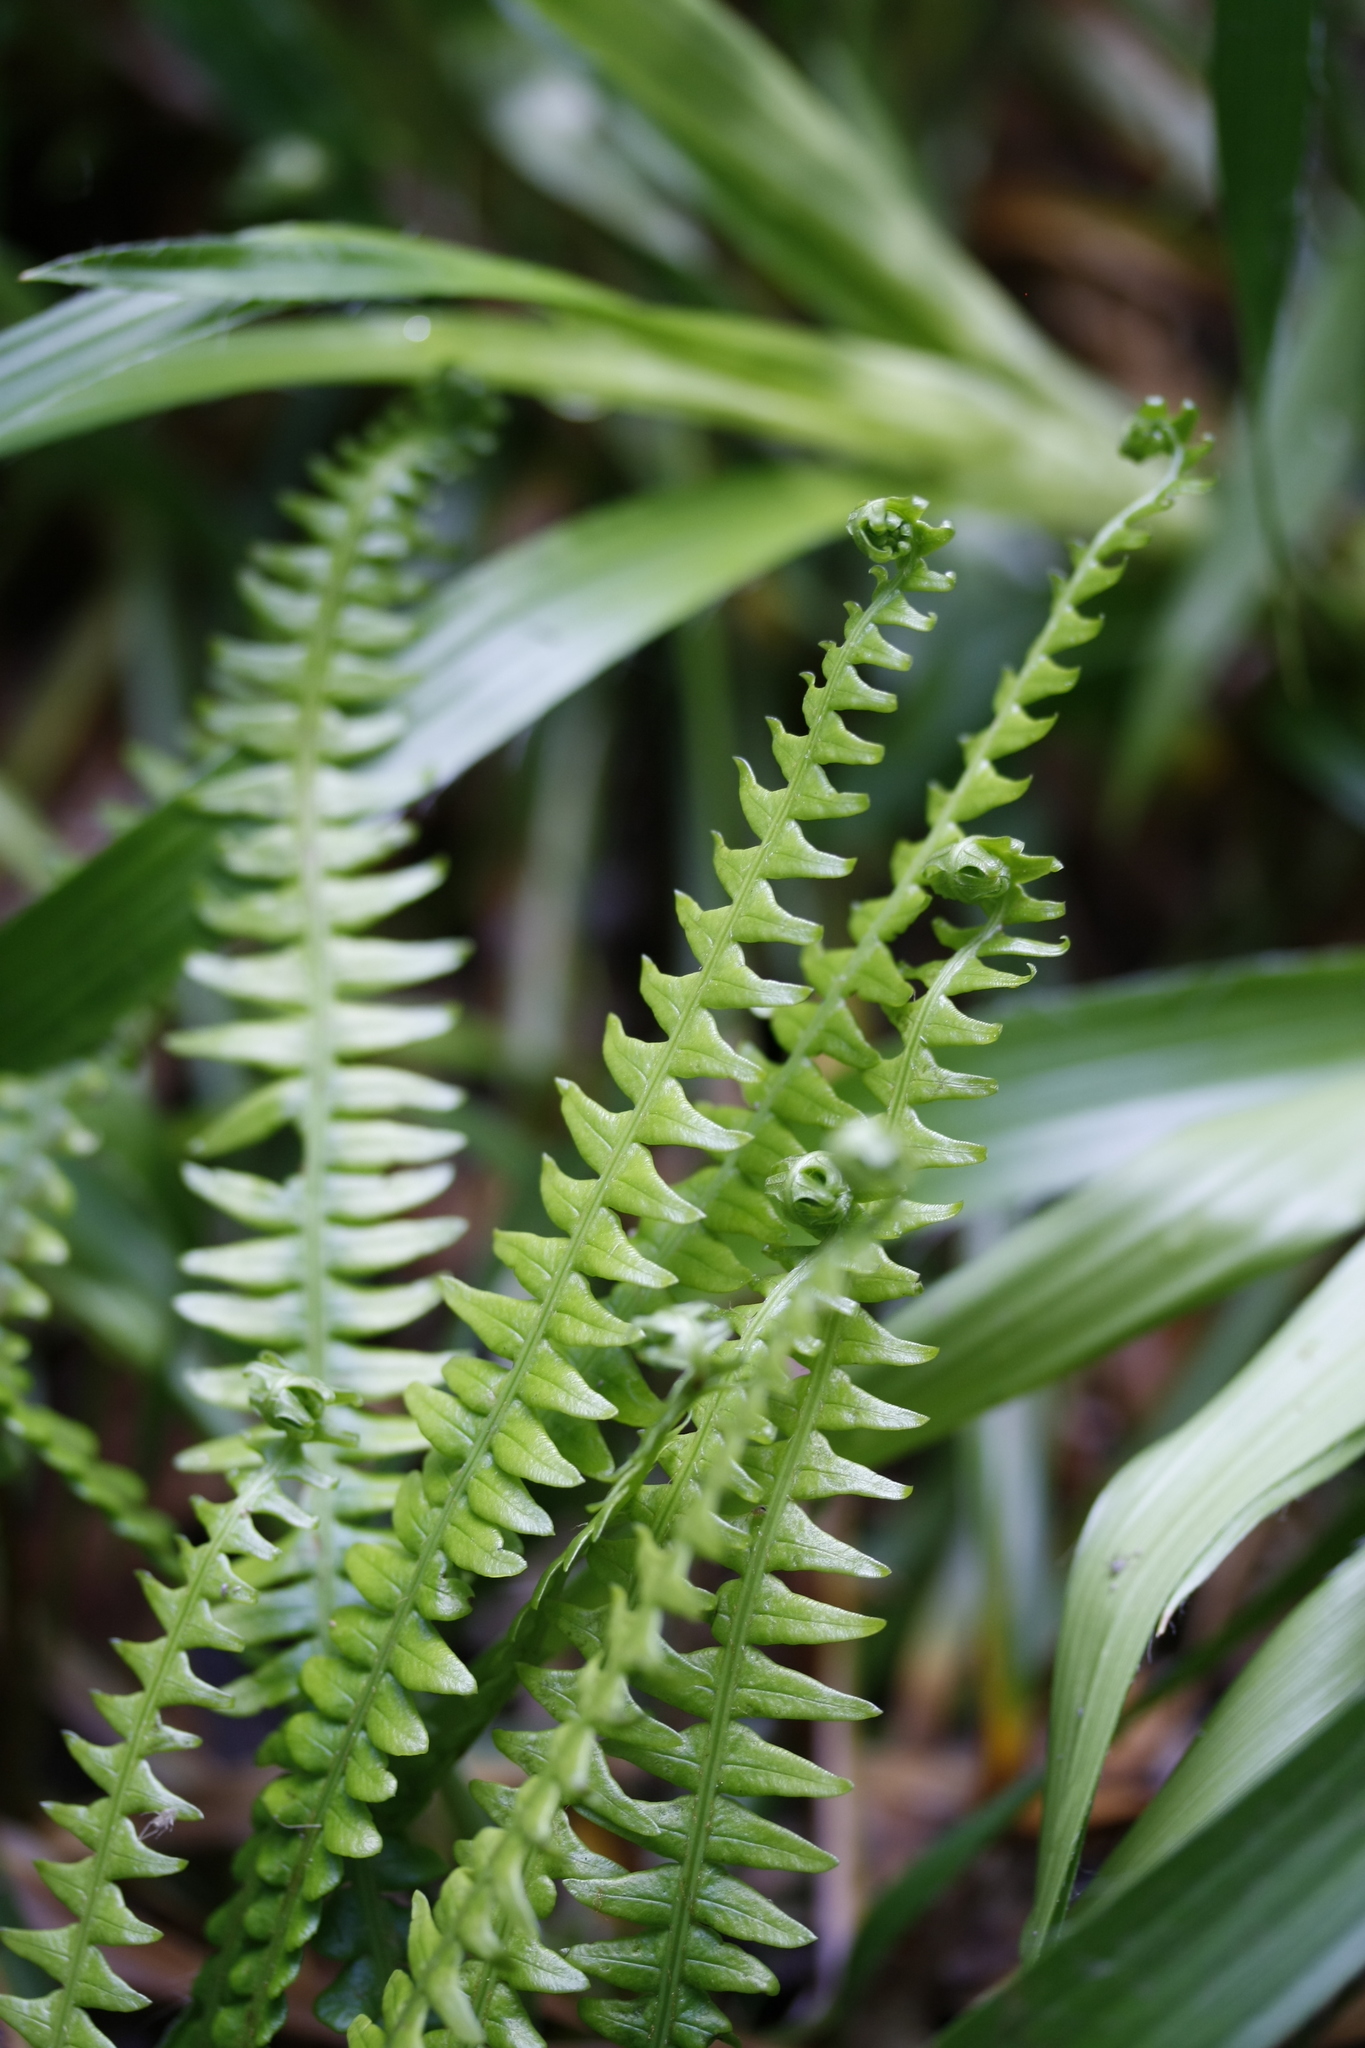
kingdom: Plantae
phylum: Tracheophyta
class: Polypodiopsida
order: Polypodiales
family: Blechnaceae
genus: Struthiopteris
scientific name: Struthiopteris spicant
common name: Deer fern
